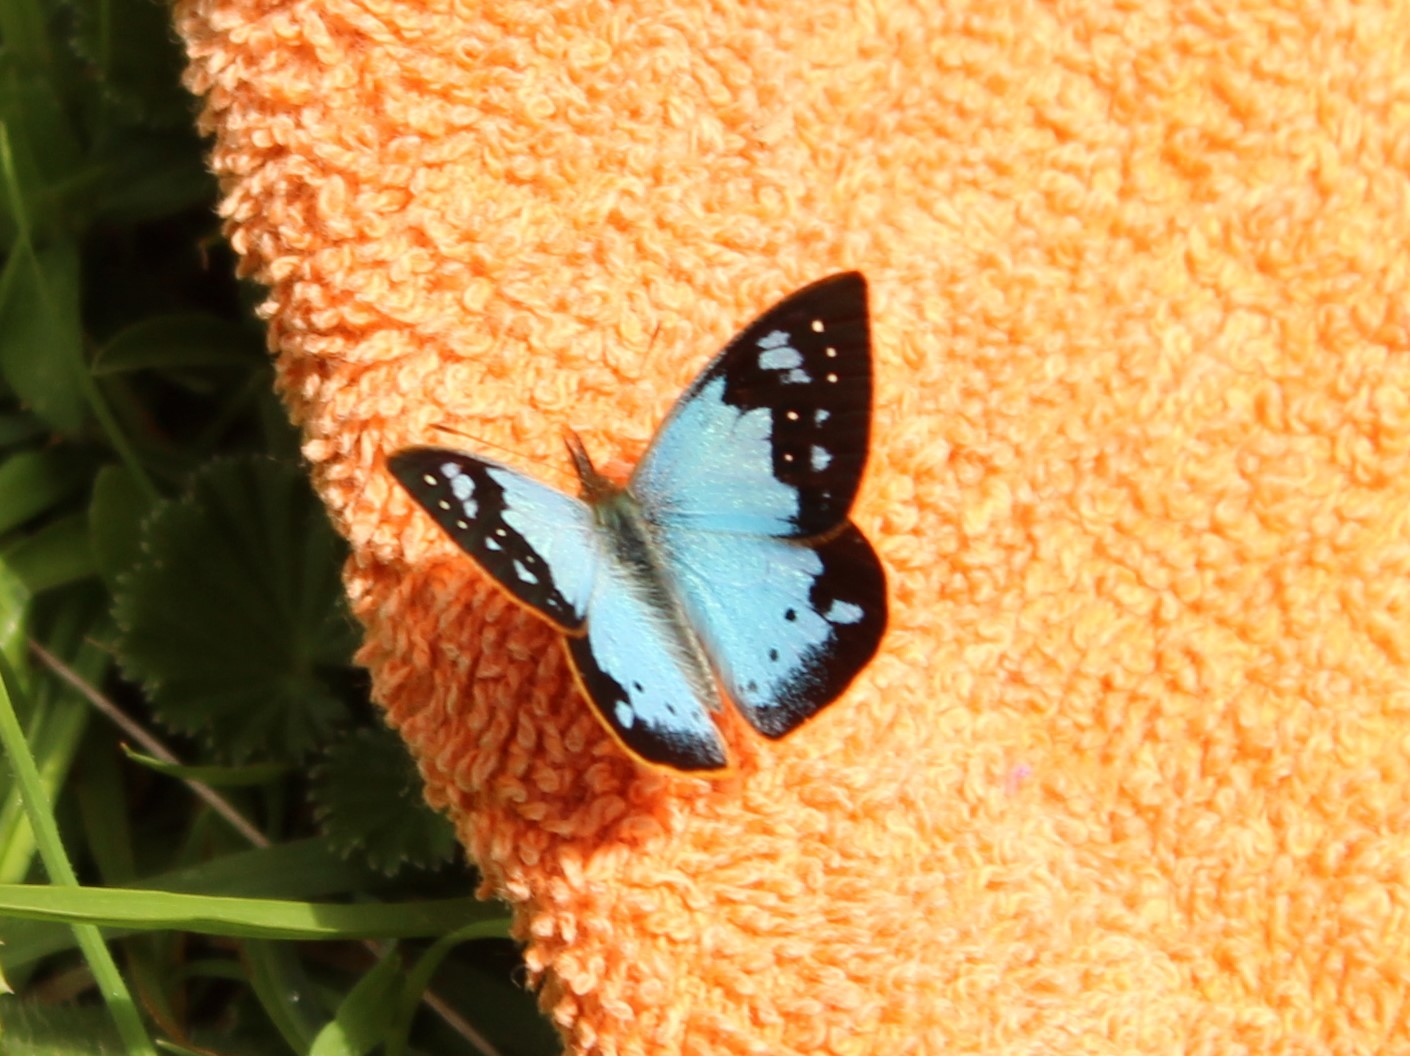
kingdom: Animalia
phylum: Arthropoda
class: Insecta
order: Lepidoptera
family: Nymphalidae
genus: Lymanopoda
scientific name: Lymanopoda samius
